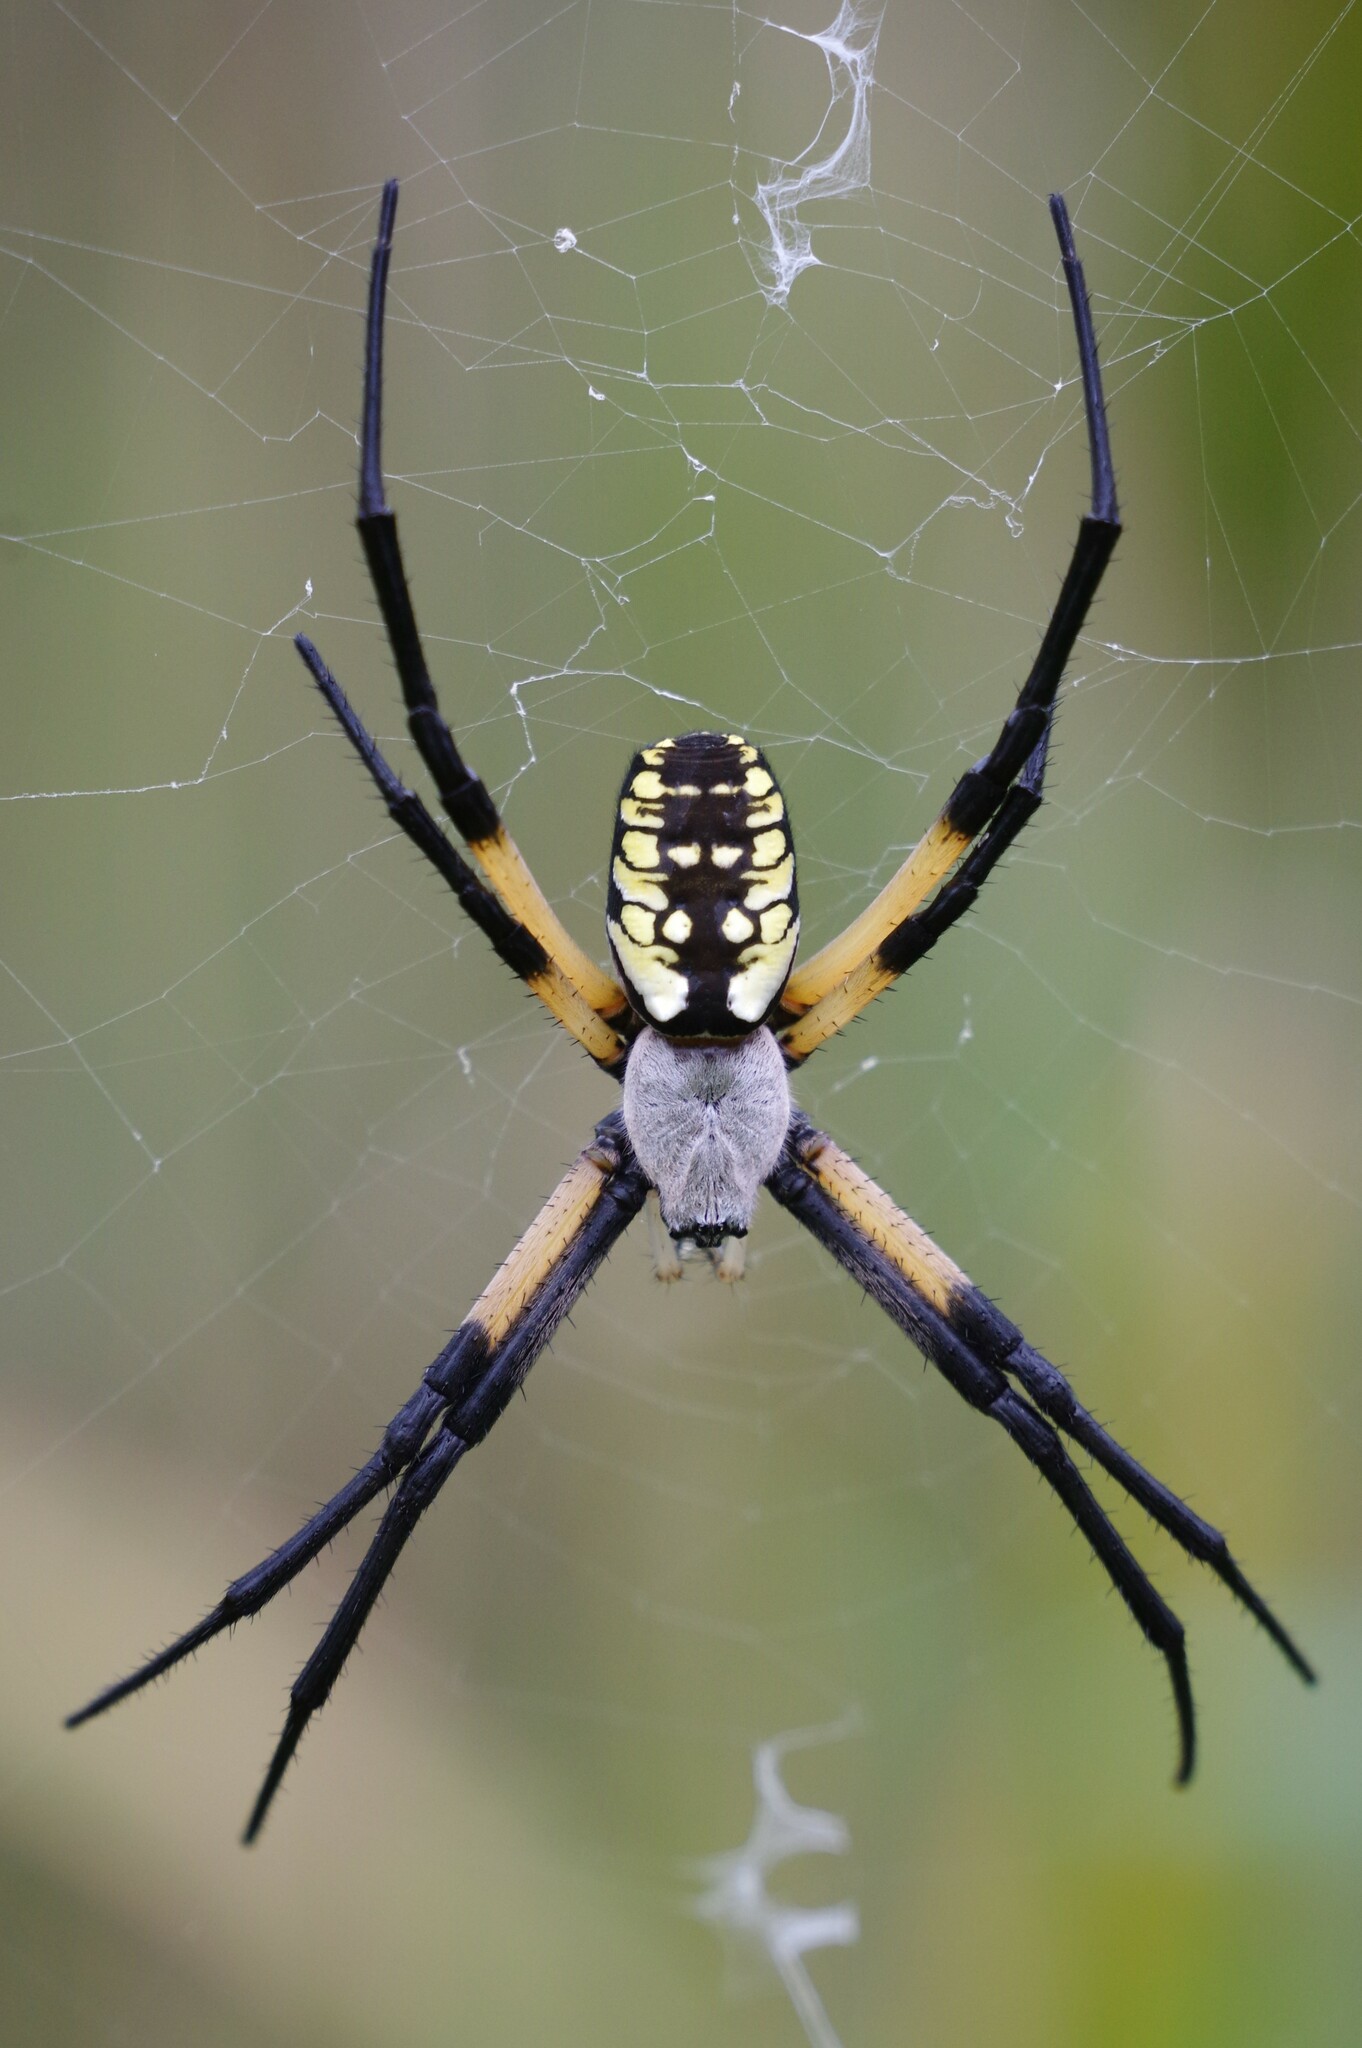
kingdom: Animalia
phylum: Arthropoda
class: Arachnida
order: Araneae
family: Araneidae
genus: Argiope
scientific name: Argiope aurantia
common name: Orb weavers
